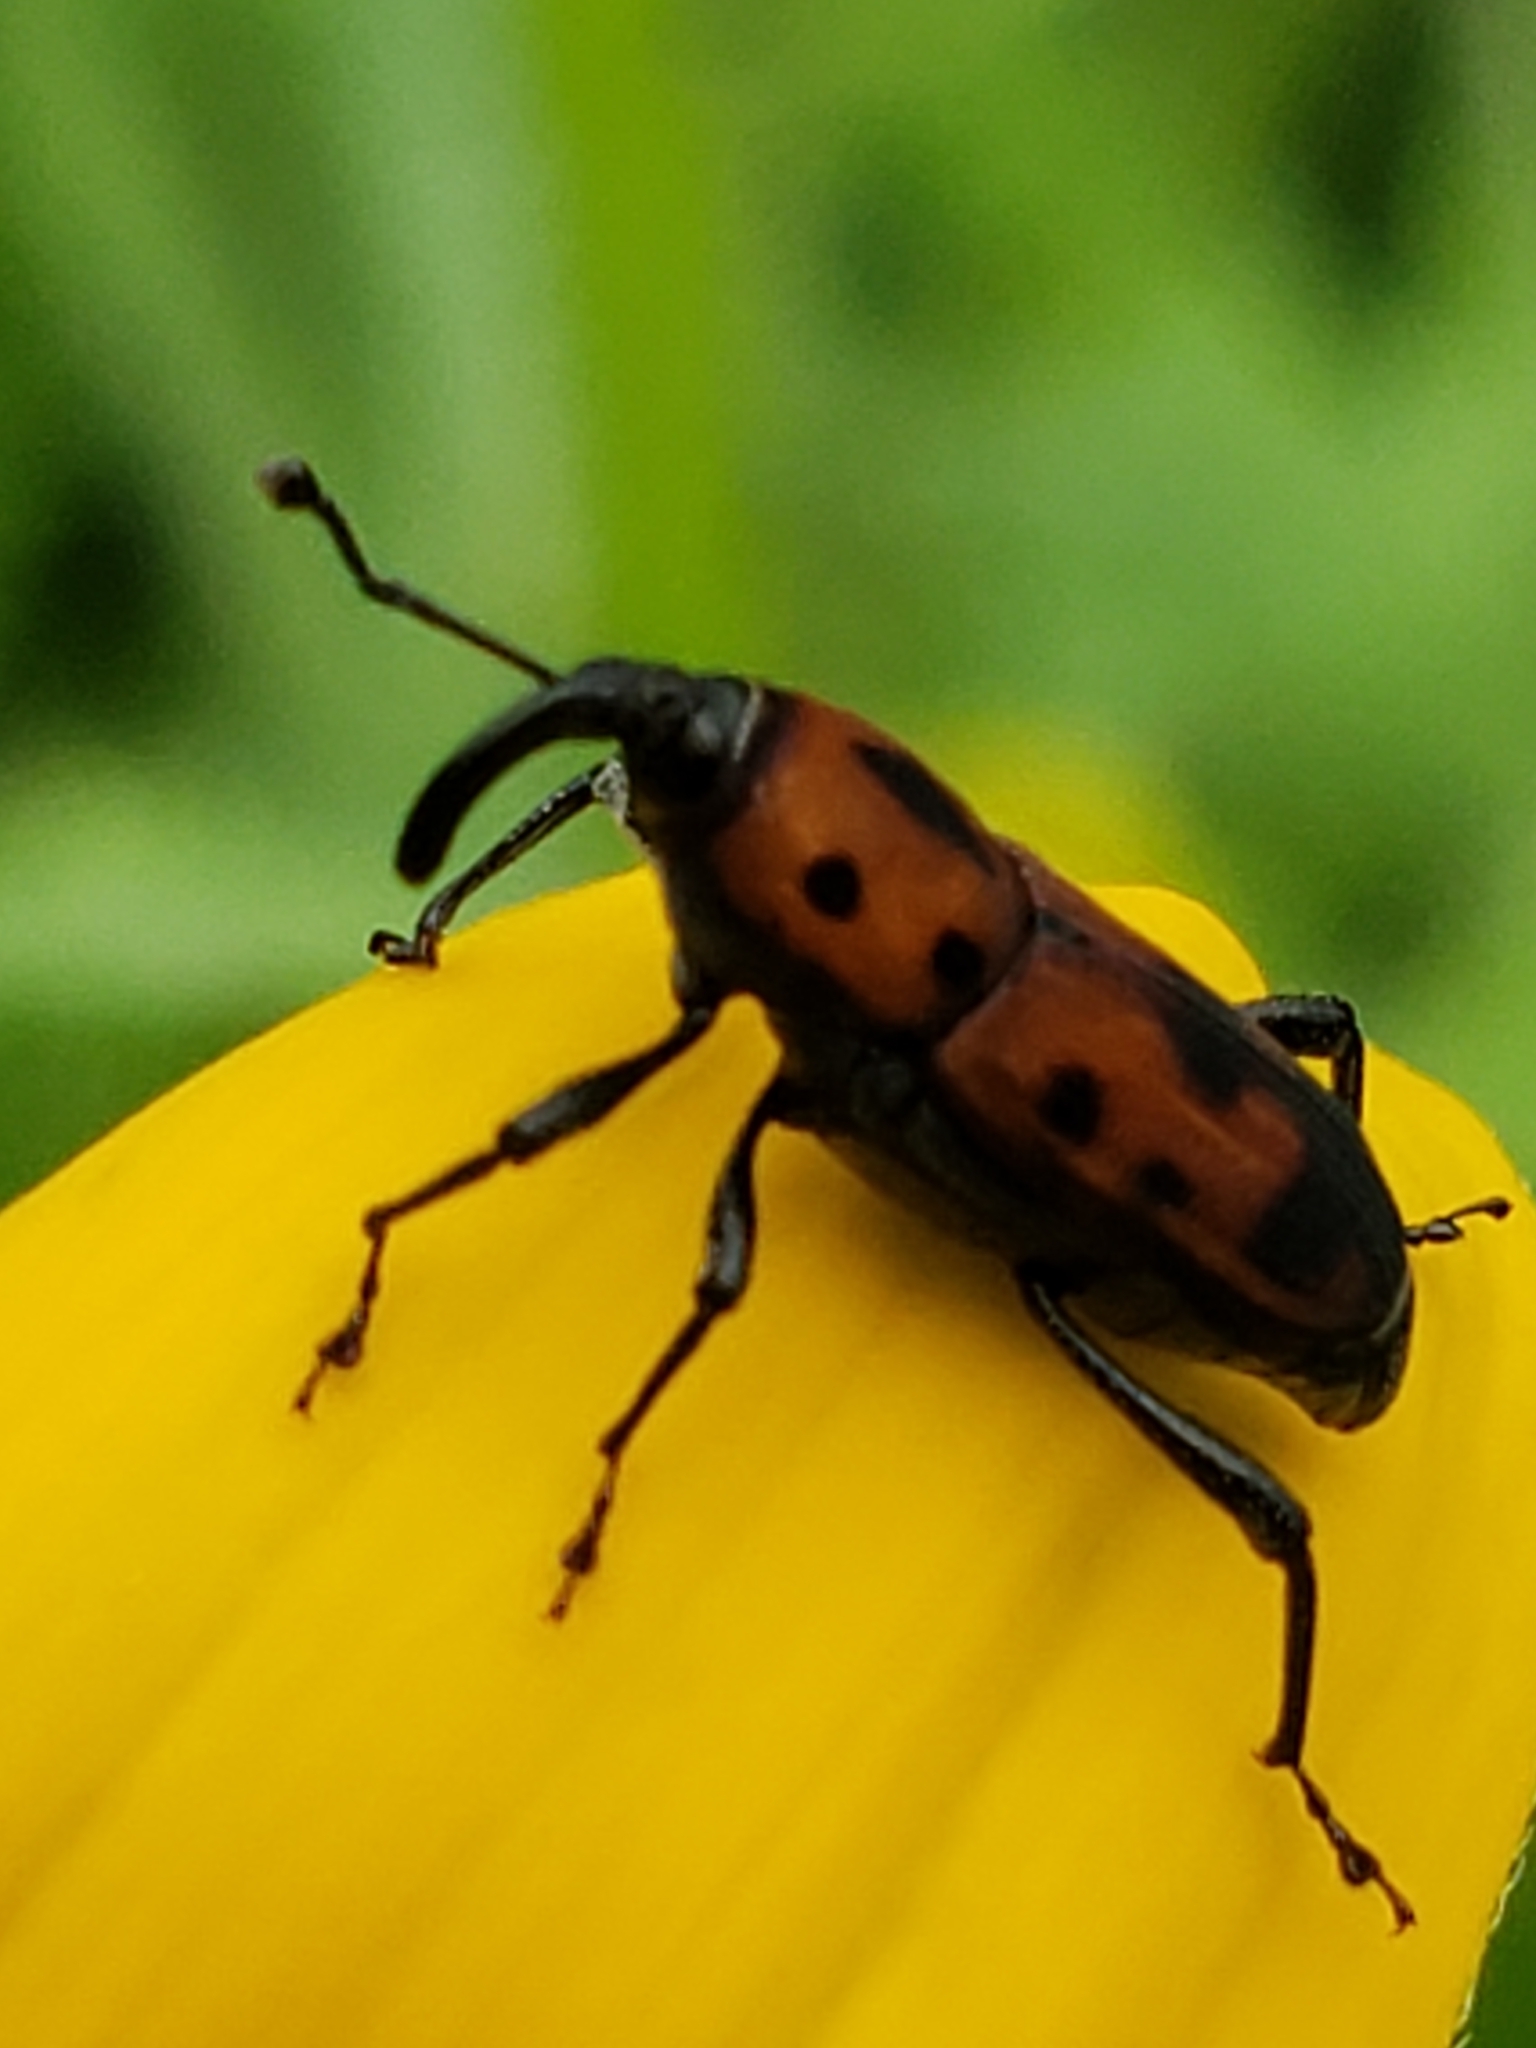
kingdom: Animalia
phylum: Arthropoda
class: Insecta
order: Coleoptera
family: Dryophthoridae
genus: Rhodobaenus
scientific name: Rhodobaenus quinquepunctatus
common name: Cocklebur weevil
